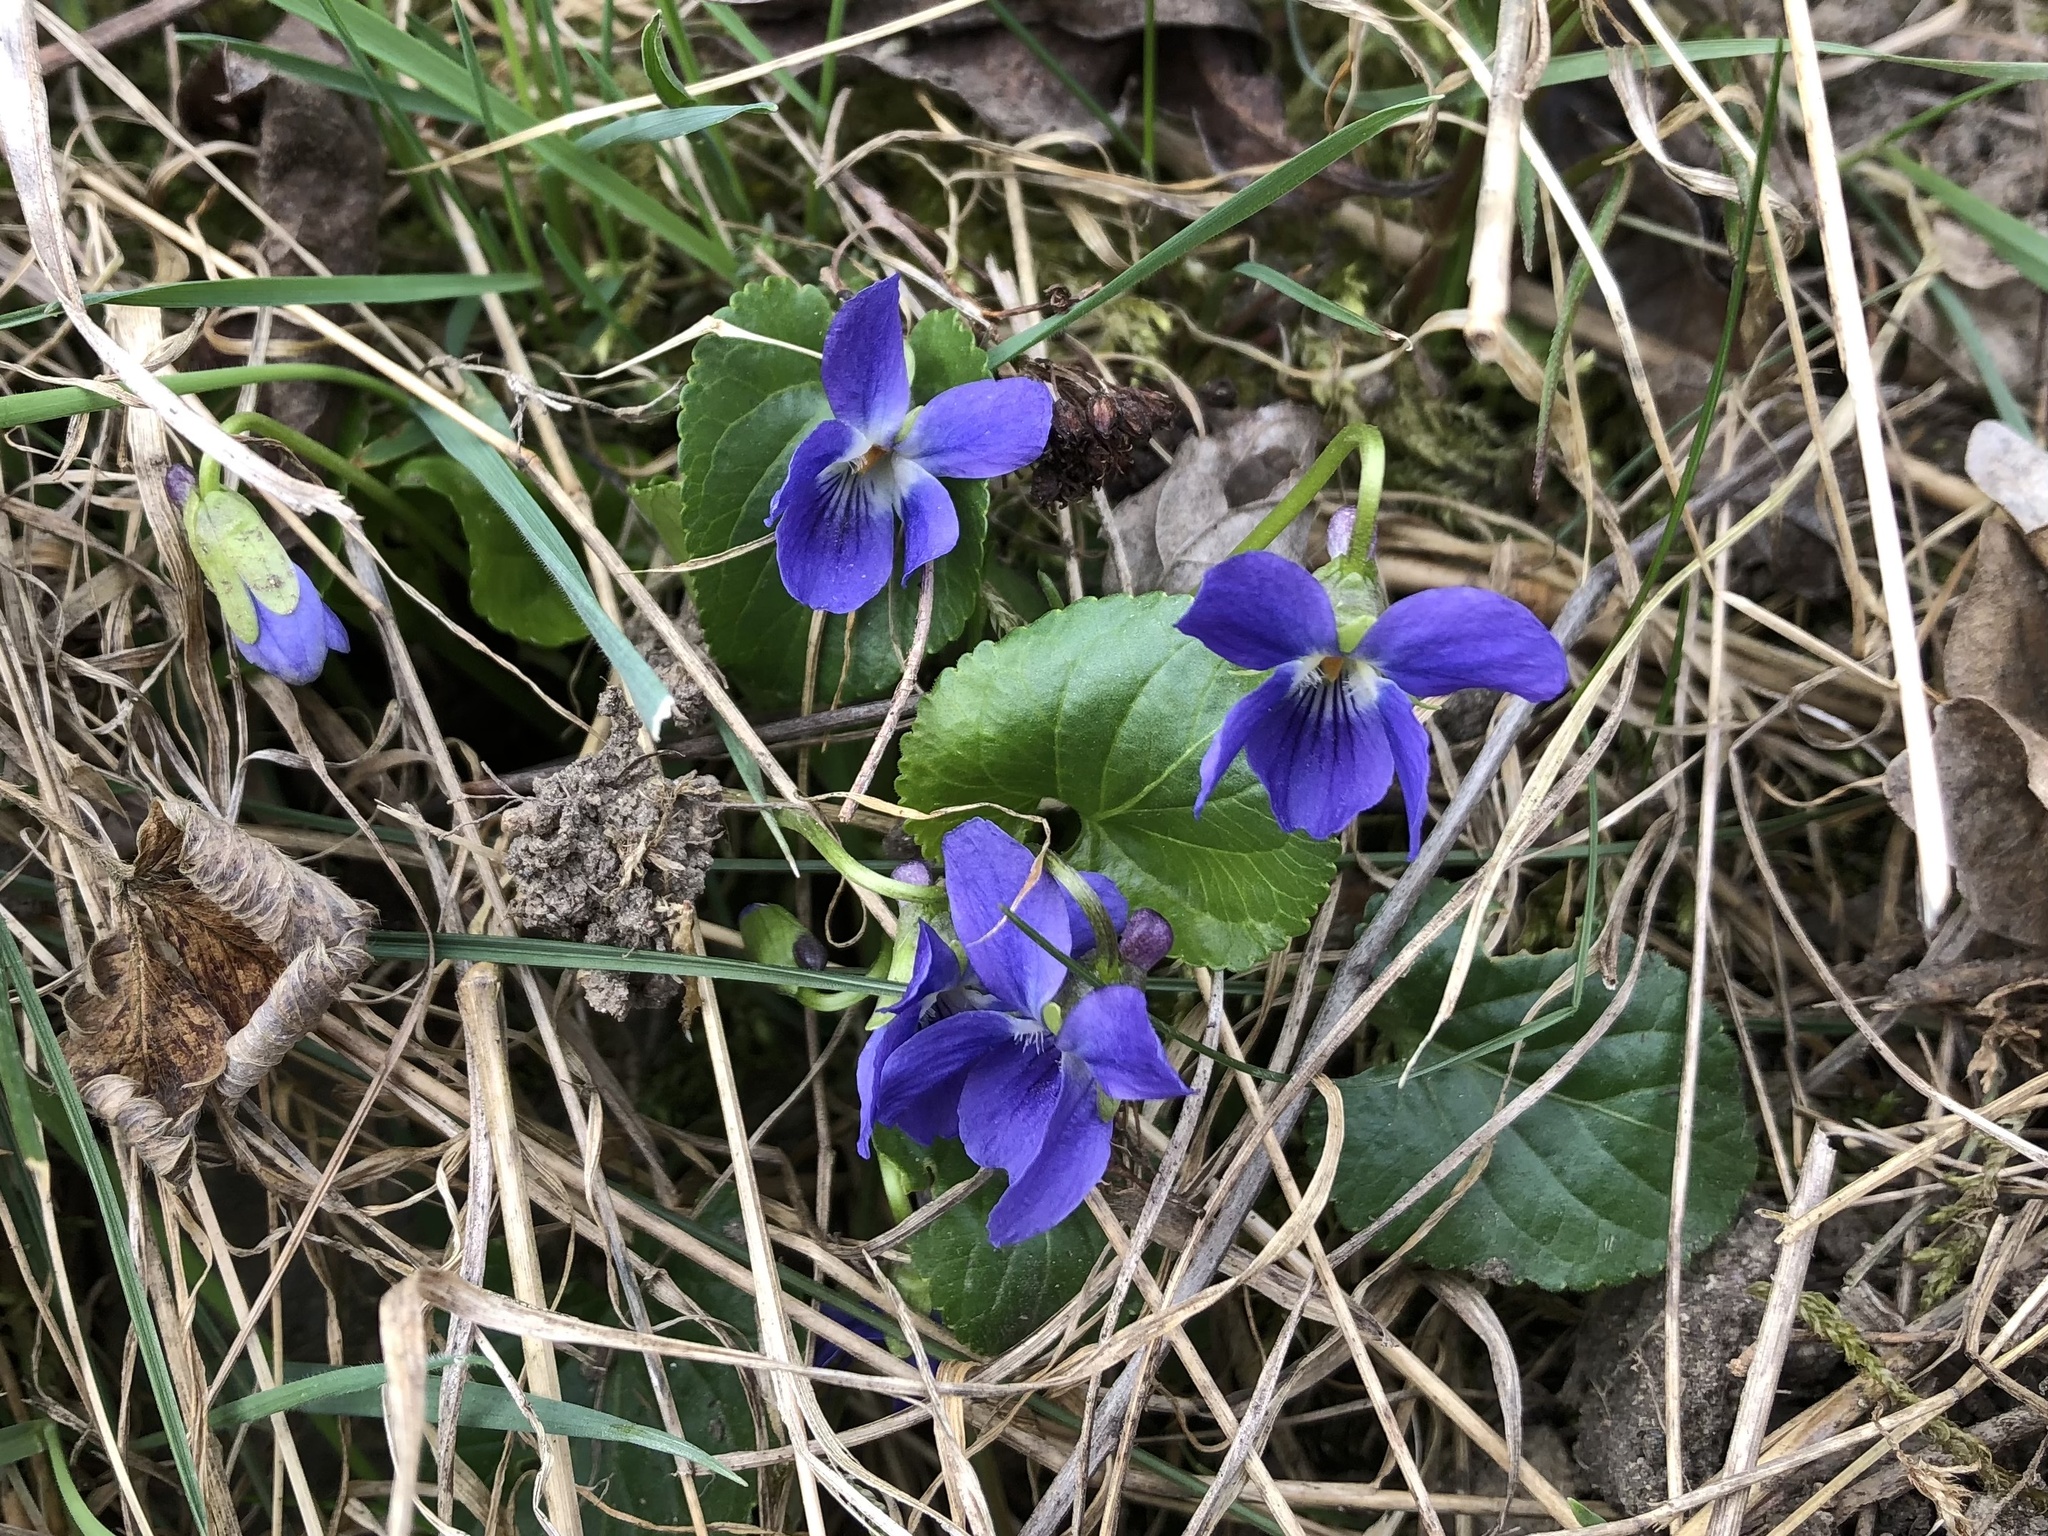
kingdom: Plantae
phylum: Tracheophyta
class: Magnoliopsida
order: Malpighiales
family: Violaceae
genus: Viola
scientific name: Viola odorata
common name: Sweet violet
